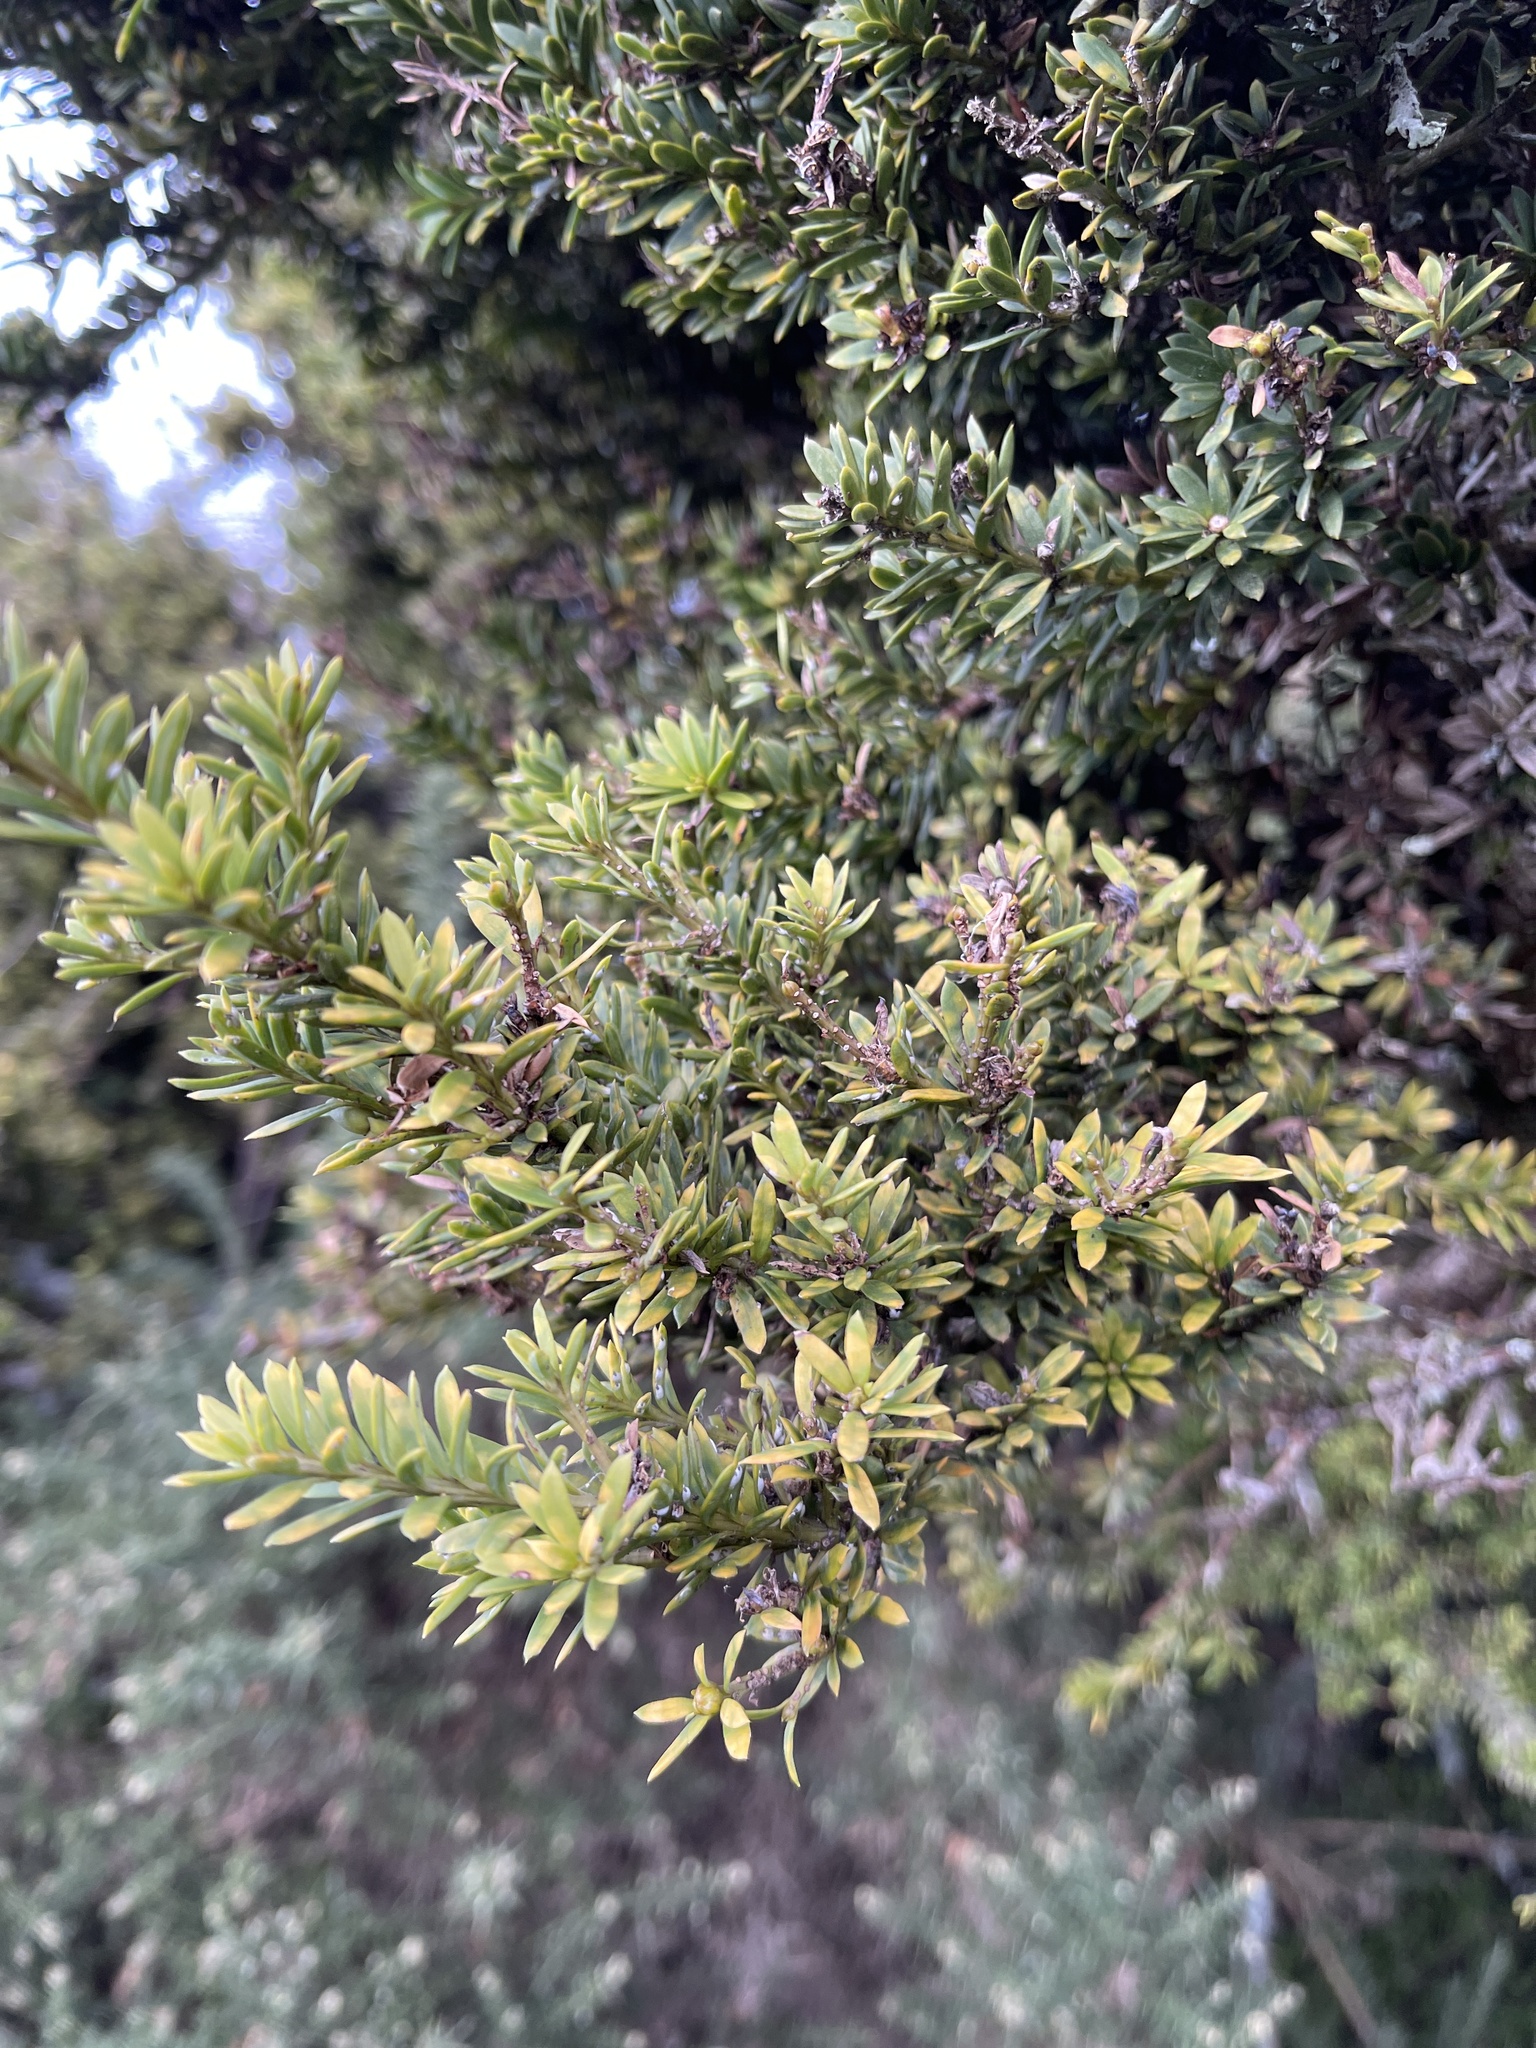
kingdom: Plantae
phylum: Tracheophyta
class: Pinopsida
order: Pinales
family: Podocarpaceae
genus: Podocarpus
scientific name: Podocarpus laetus
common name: Hall's totara
